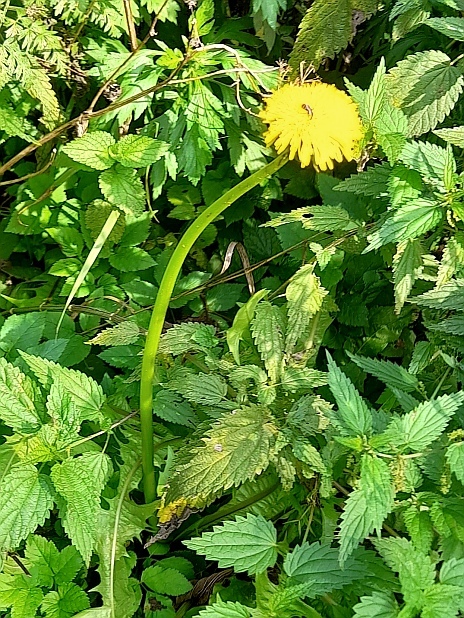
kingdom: Plantae
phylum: Tracheophyta
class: Magnoliopsida
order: Asterales
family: Asteraceae
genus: Taraxacum
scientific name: Taraxacum officinale
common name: Common dandelion
